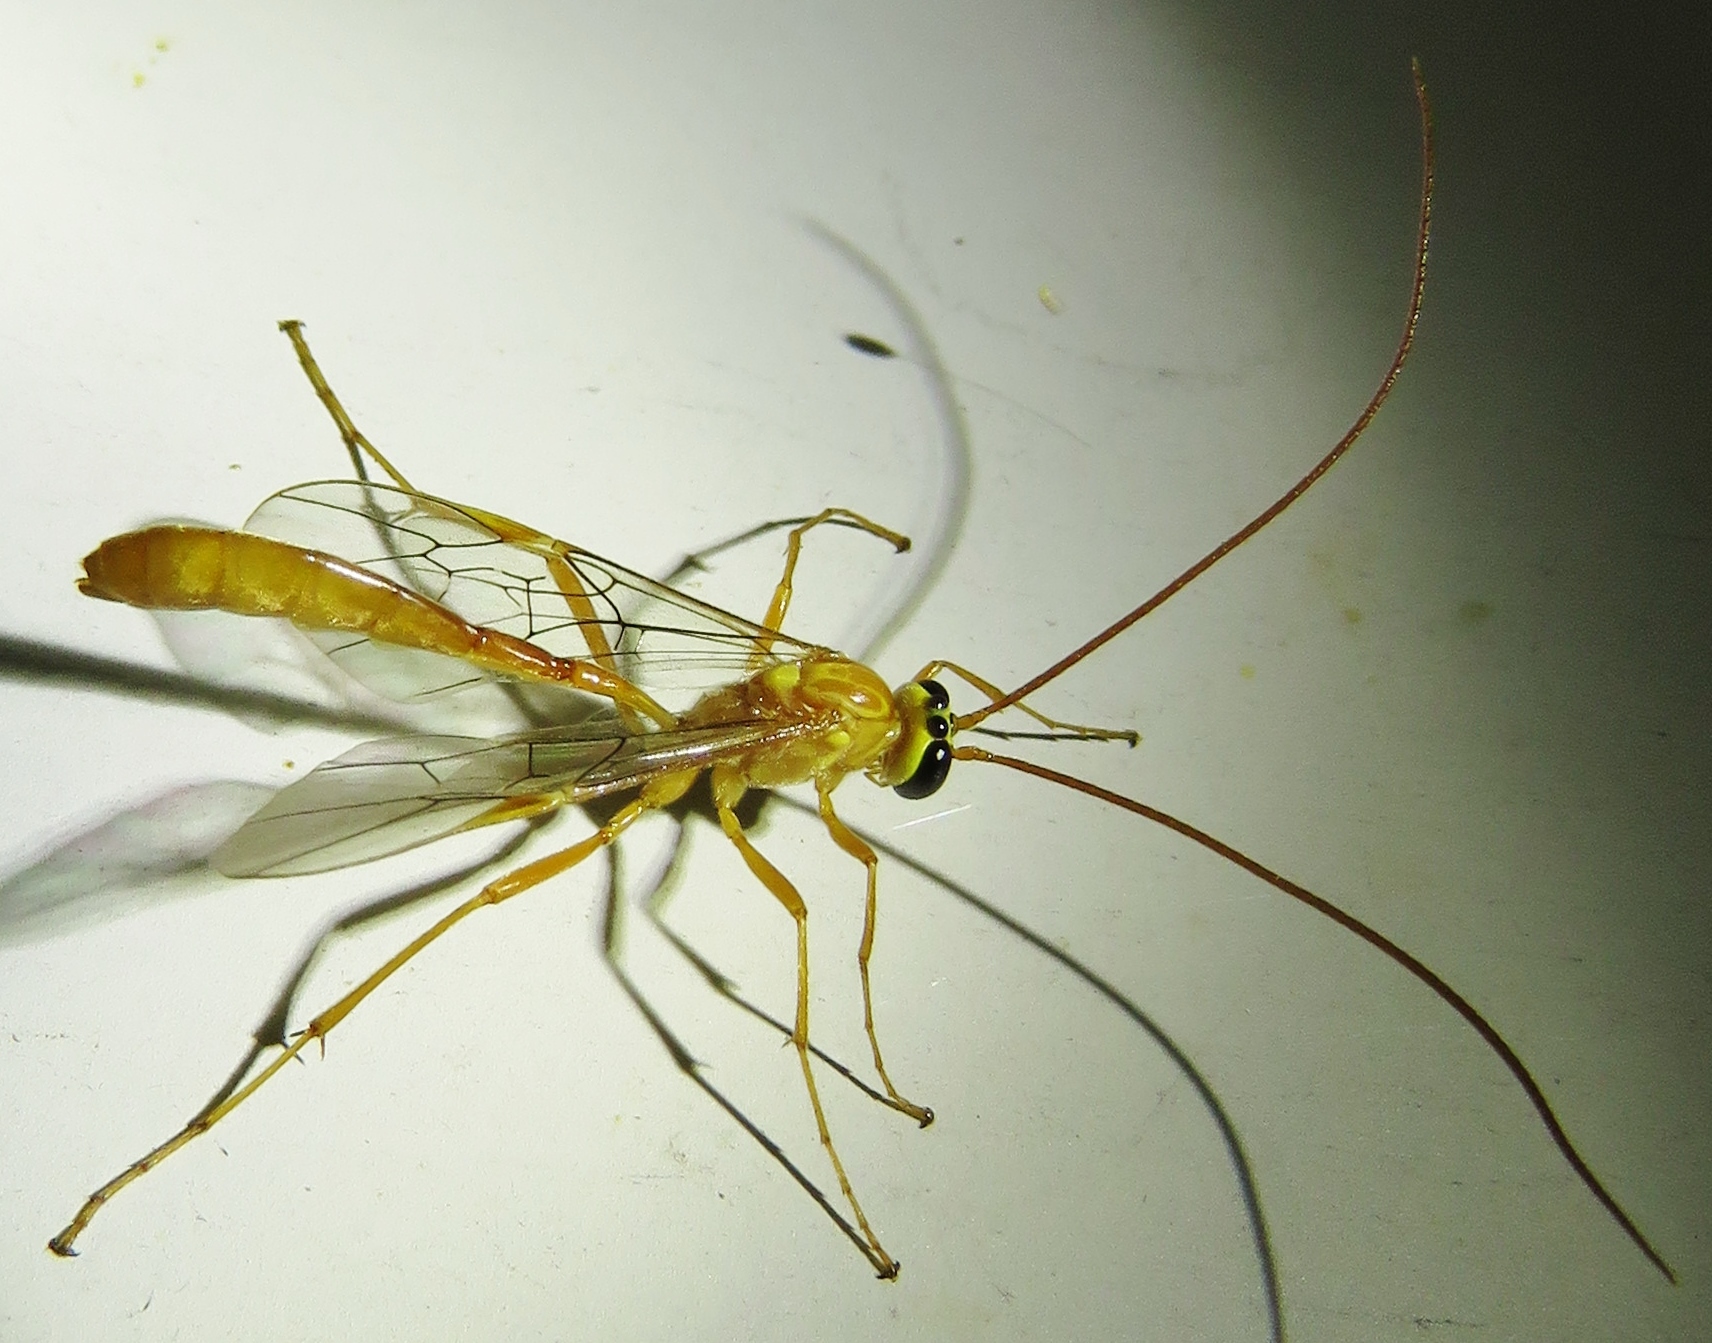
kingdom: Animalia
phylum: Arthropoda
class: Insecta
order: Hymenoptera
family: Ichneumonidae
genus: Ophion
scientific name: Ophion
